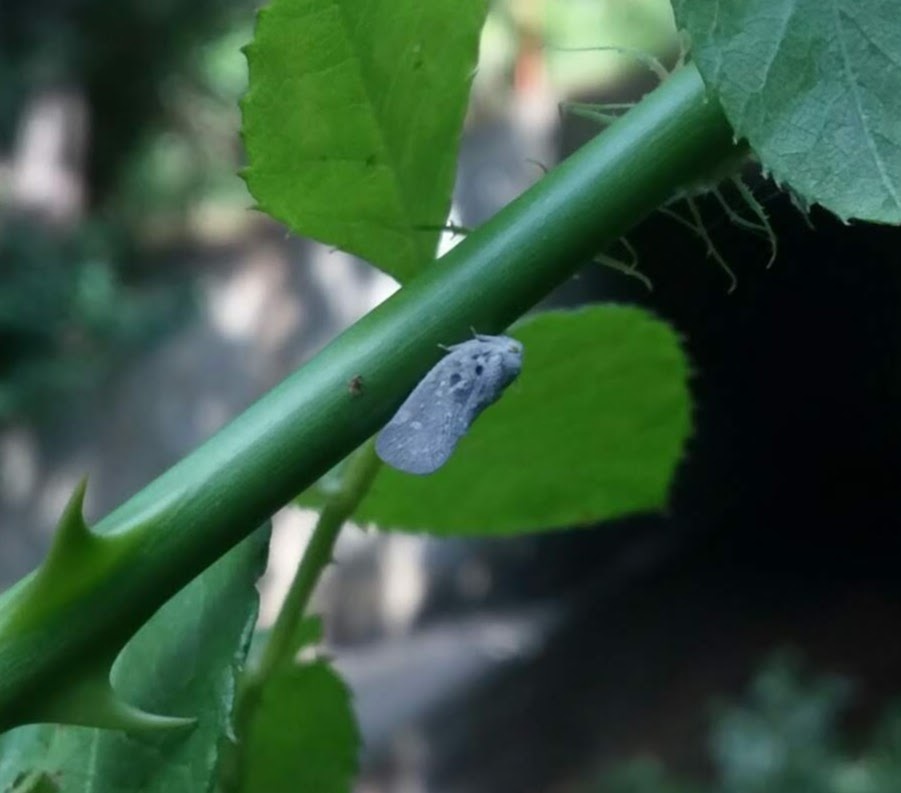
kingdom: Animalia
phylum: Arthropoda
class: Insecta
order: Hemiptera
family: Flatidae
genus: Metcalfa
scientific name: Metcalfa pruinosa
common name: Citrus flatid planthopper
